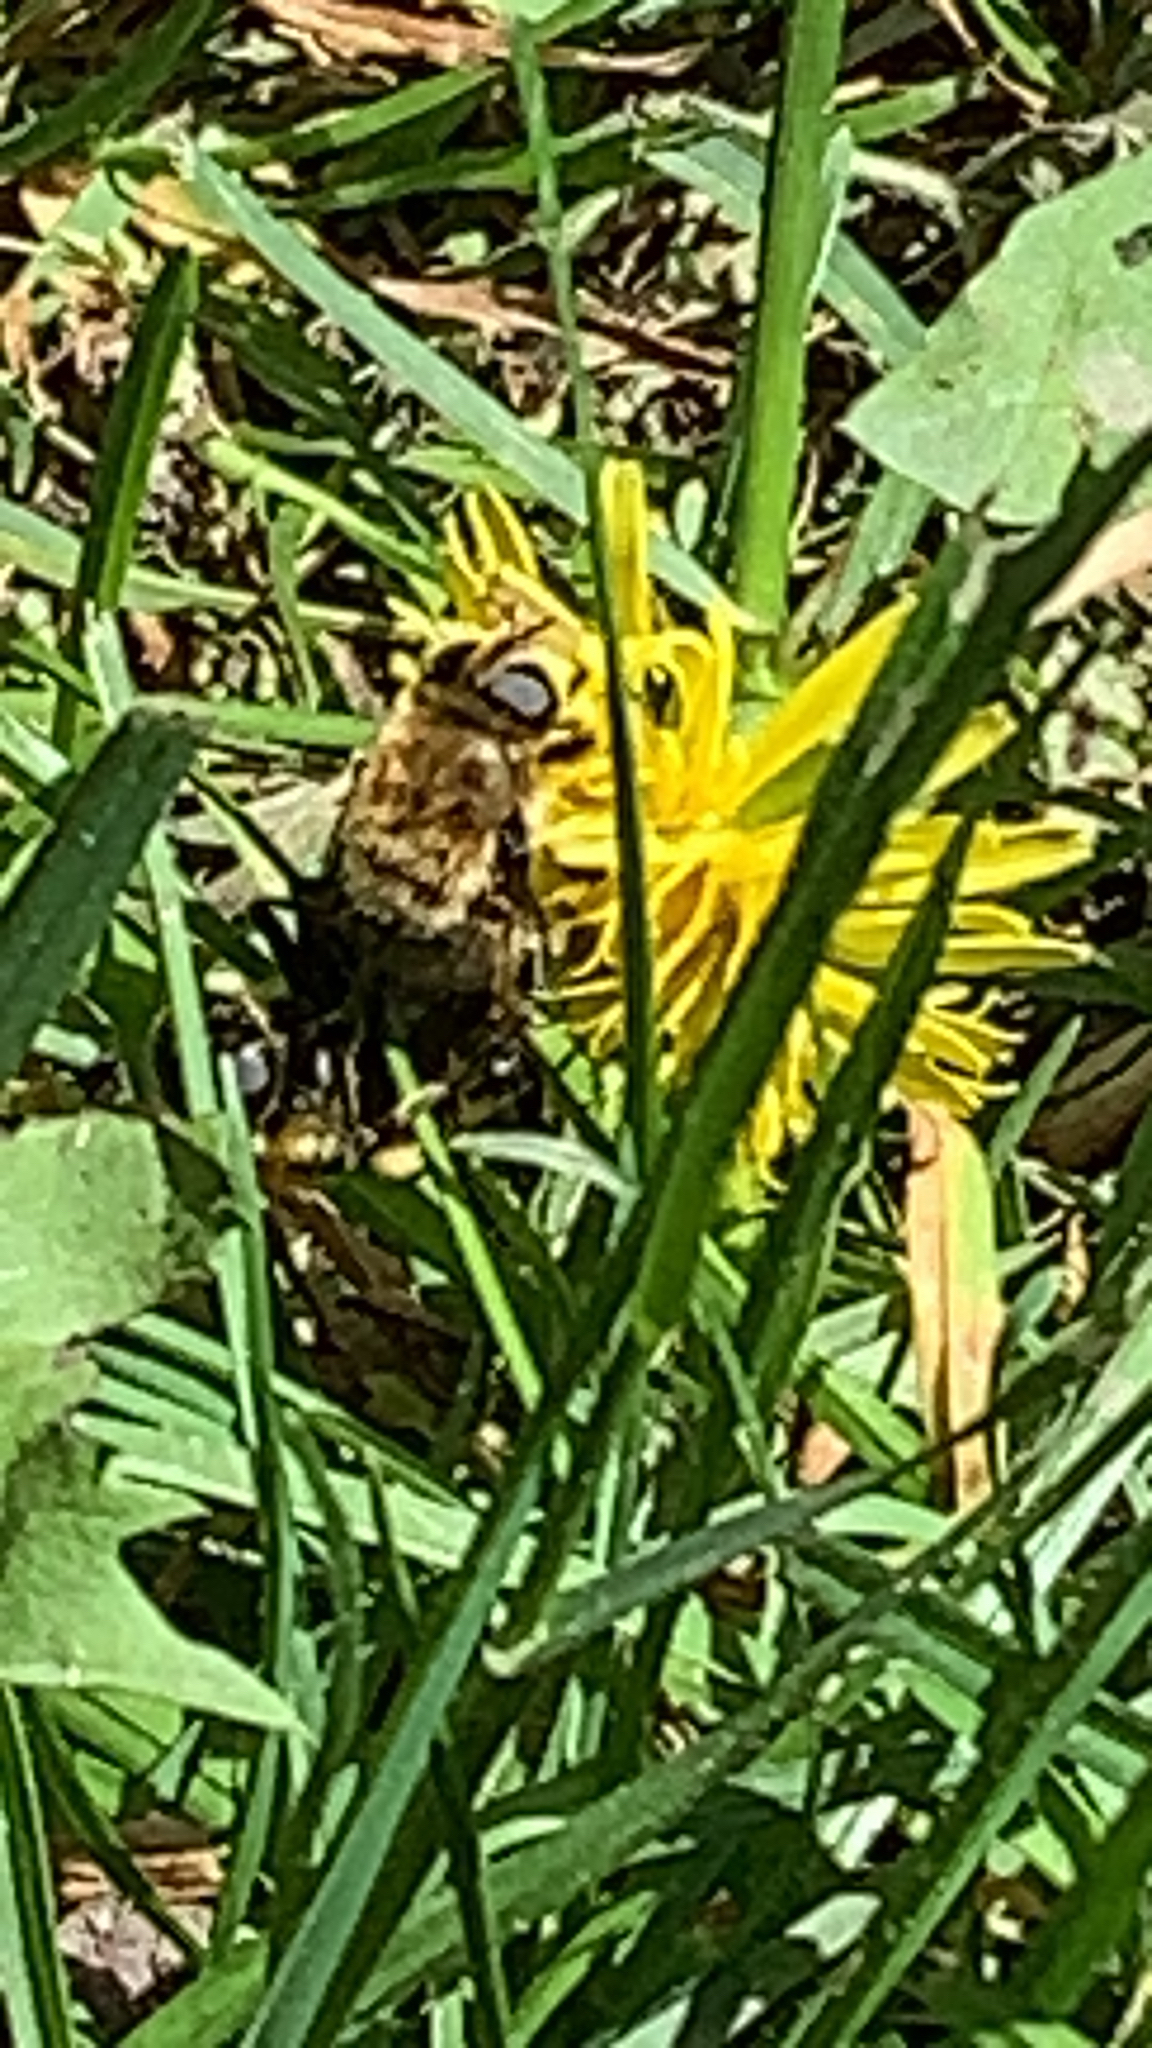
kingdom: Animalia
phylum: Arthropoda
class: Insecta
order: Diptera
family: Syrphidae
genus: Merodon
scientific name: Merodon equestris
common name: Greater bulb-fly
